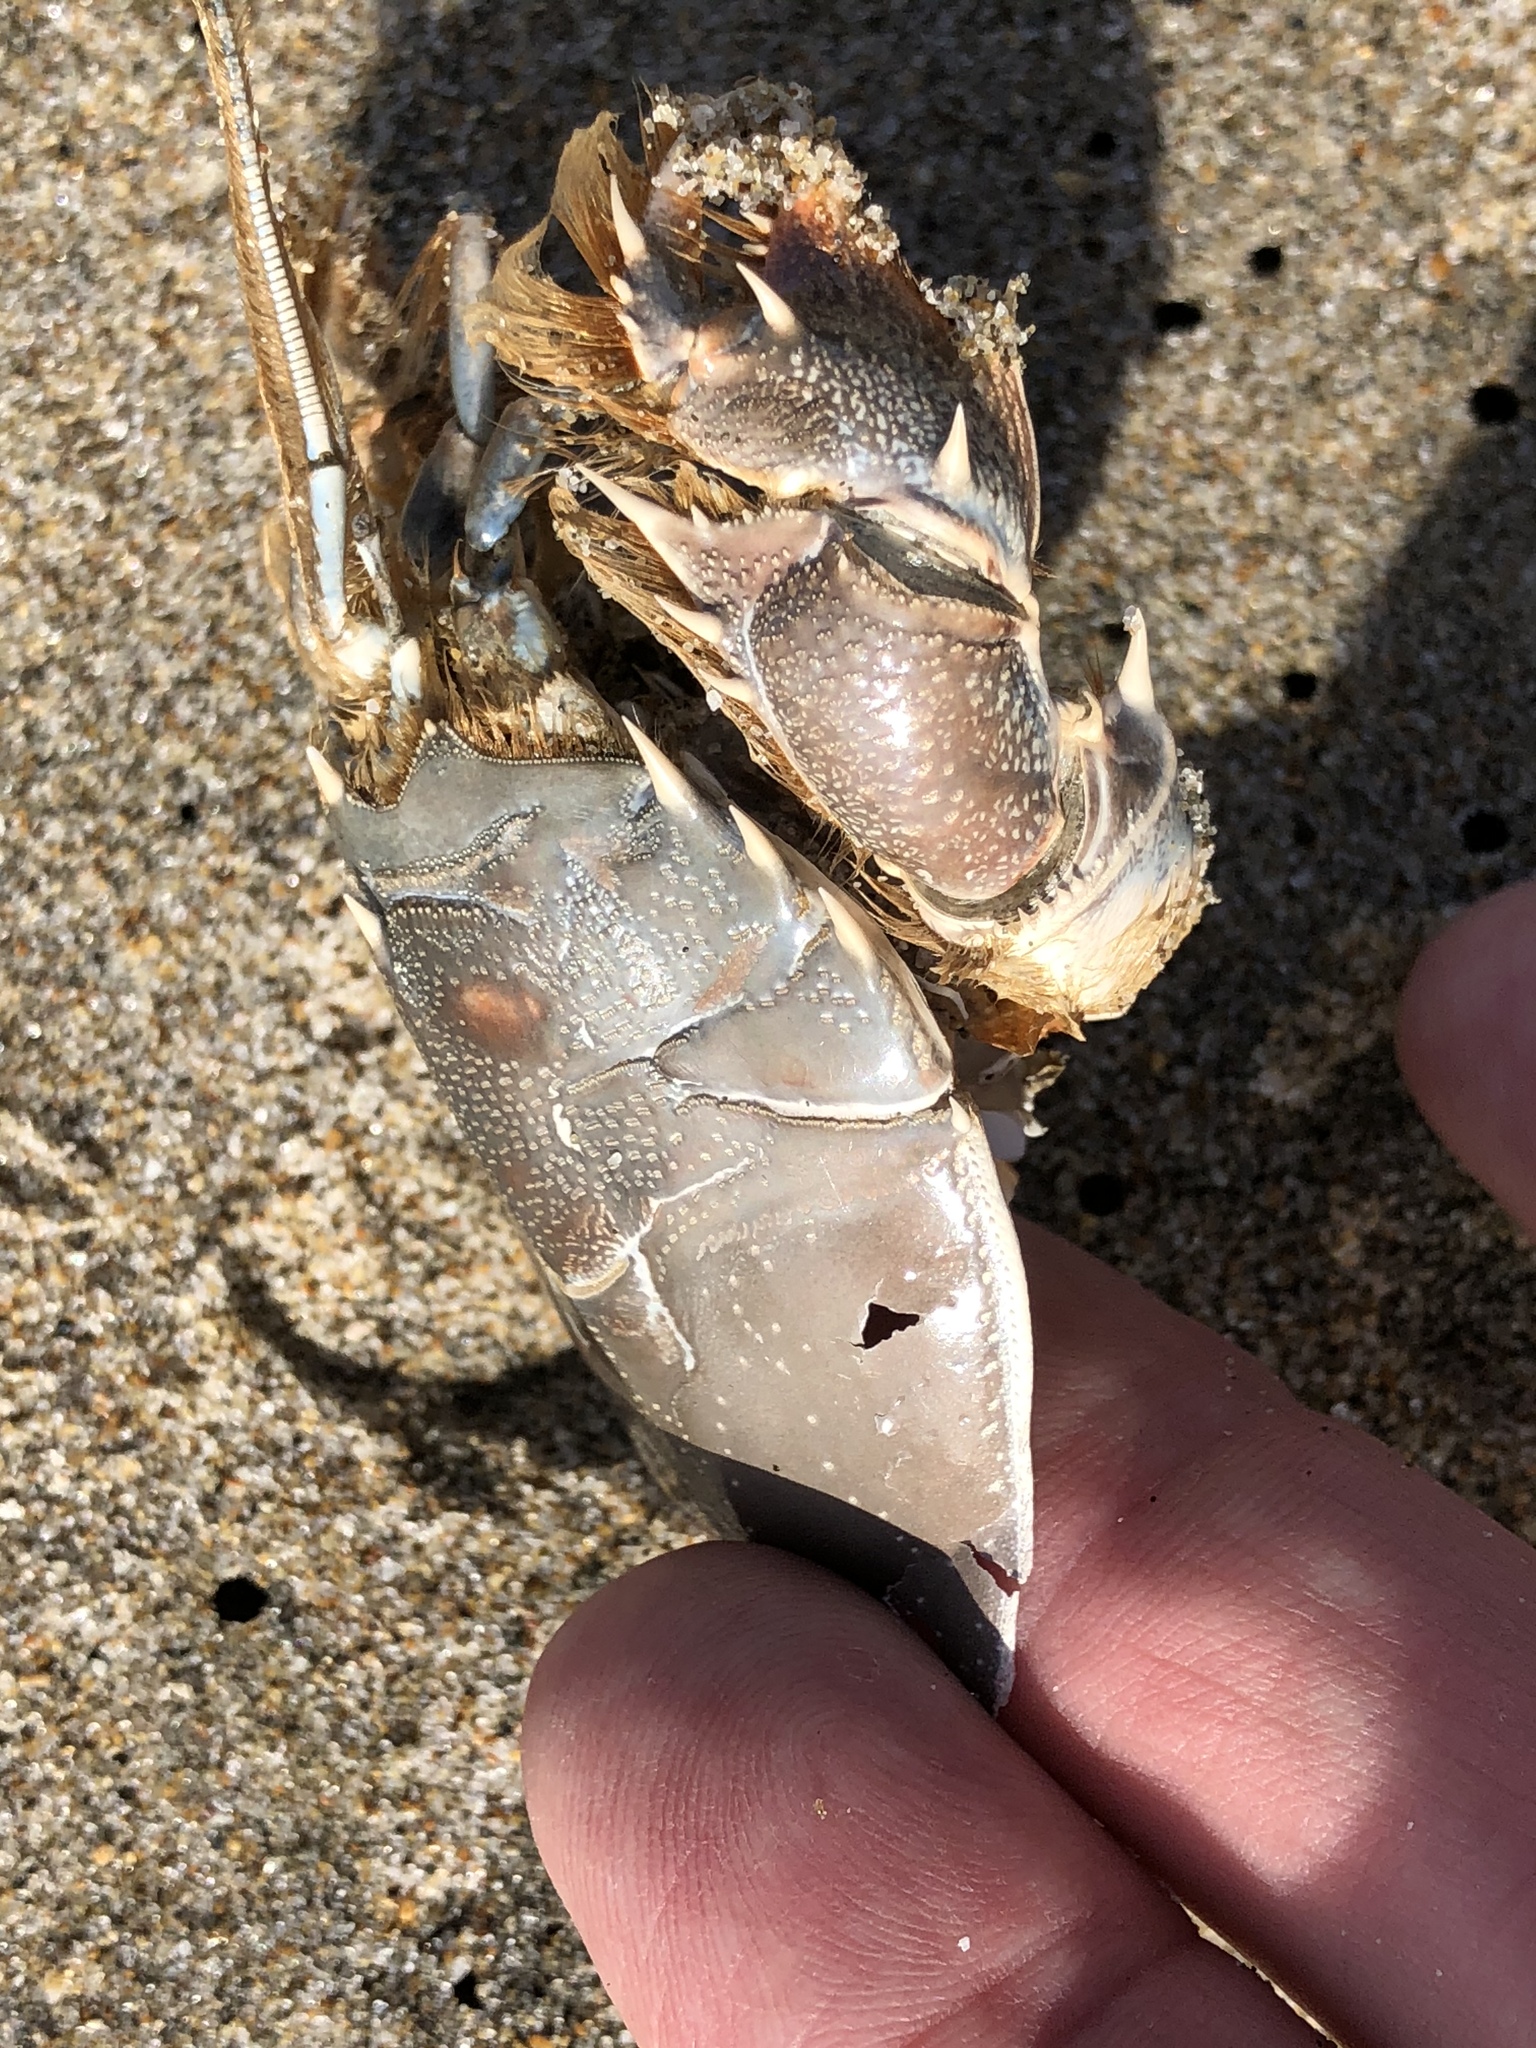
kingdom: Animalia
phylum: Arthropoda
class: Malacostraca
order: Decapoda
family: Blepharipodidae
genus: Blepharipoda
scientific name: Blepharipoda occidentalis
